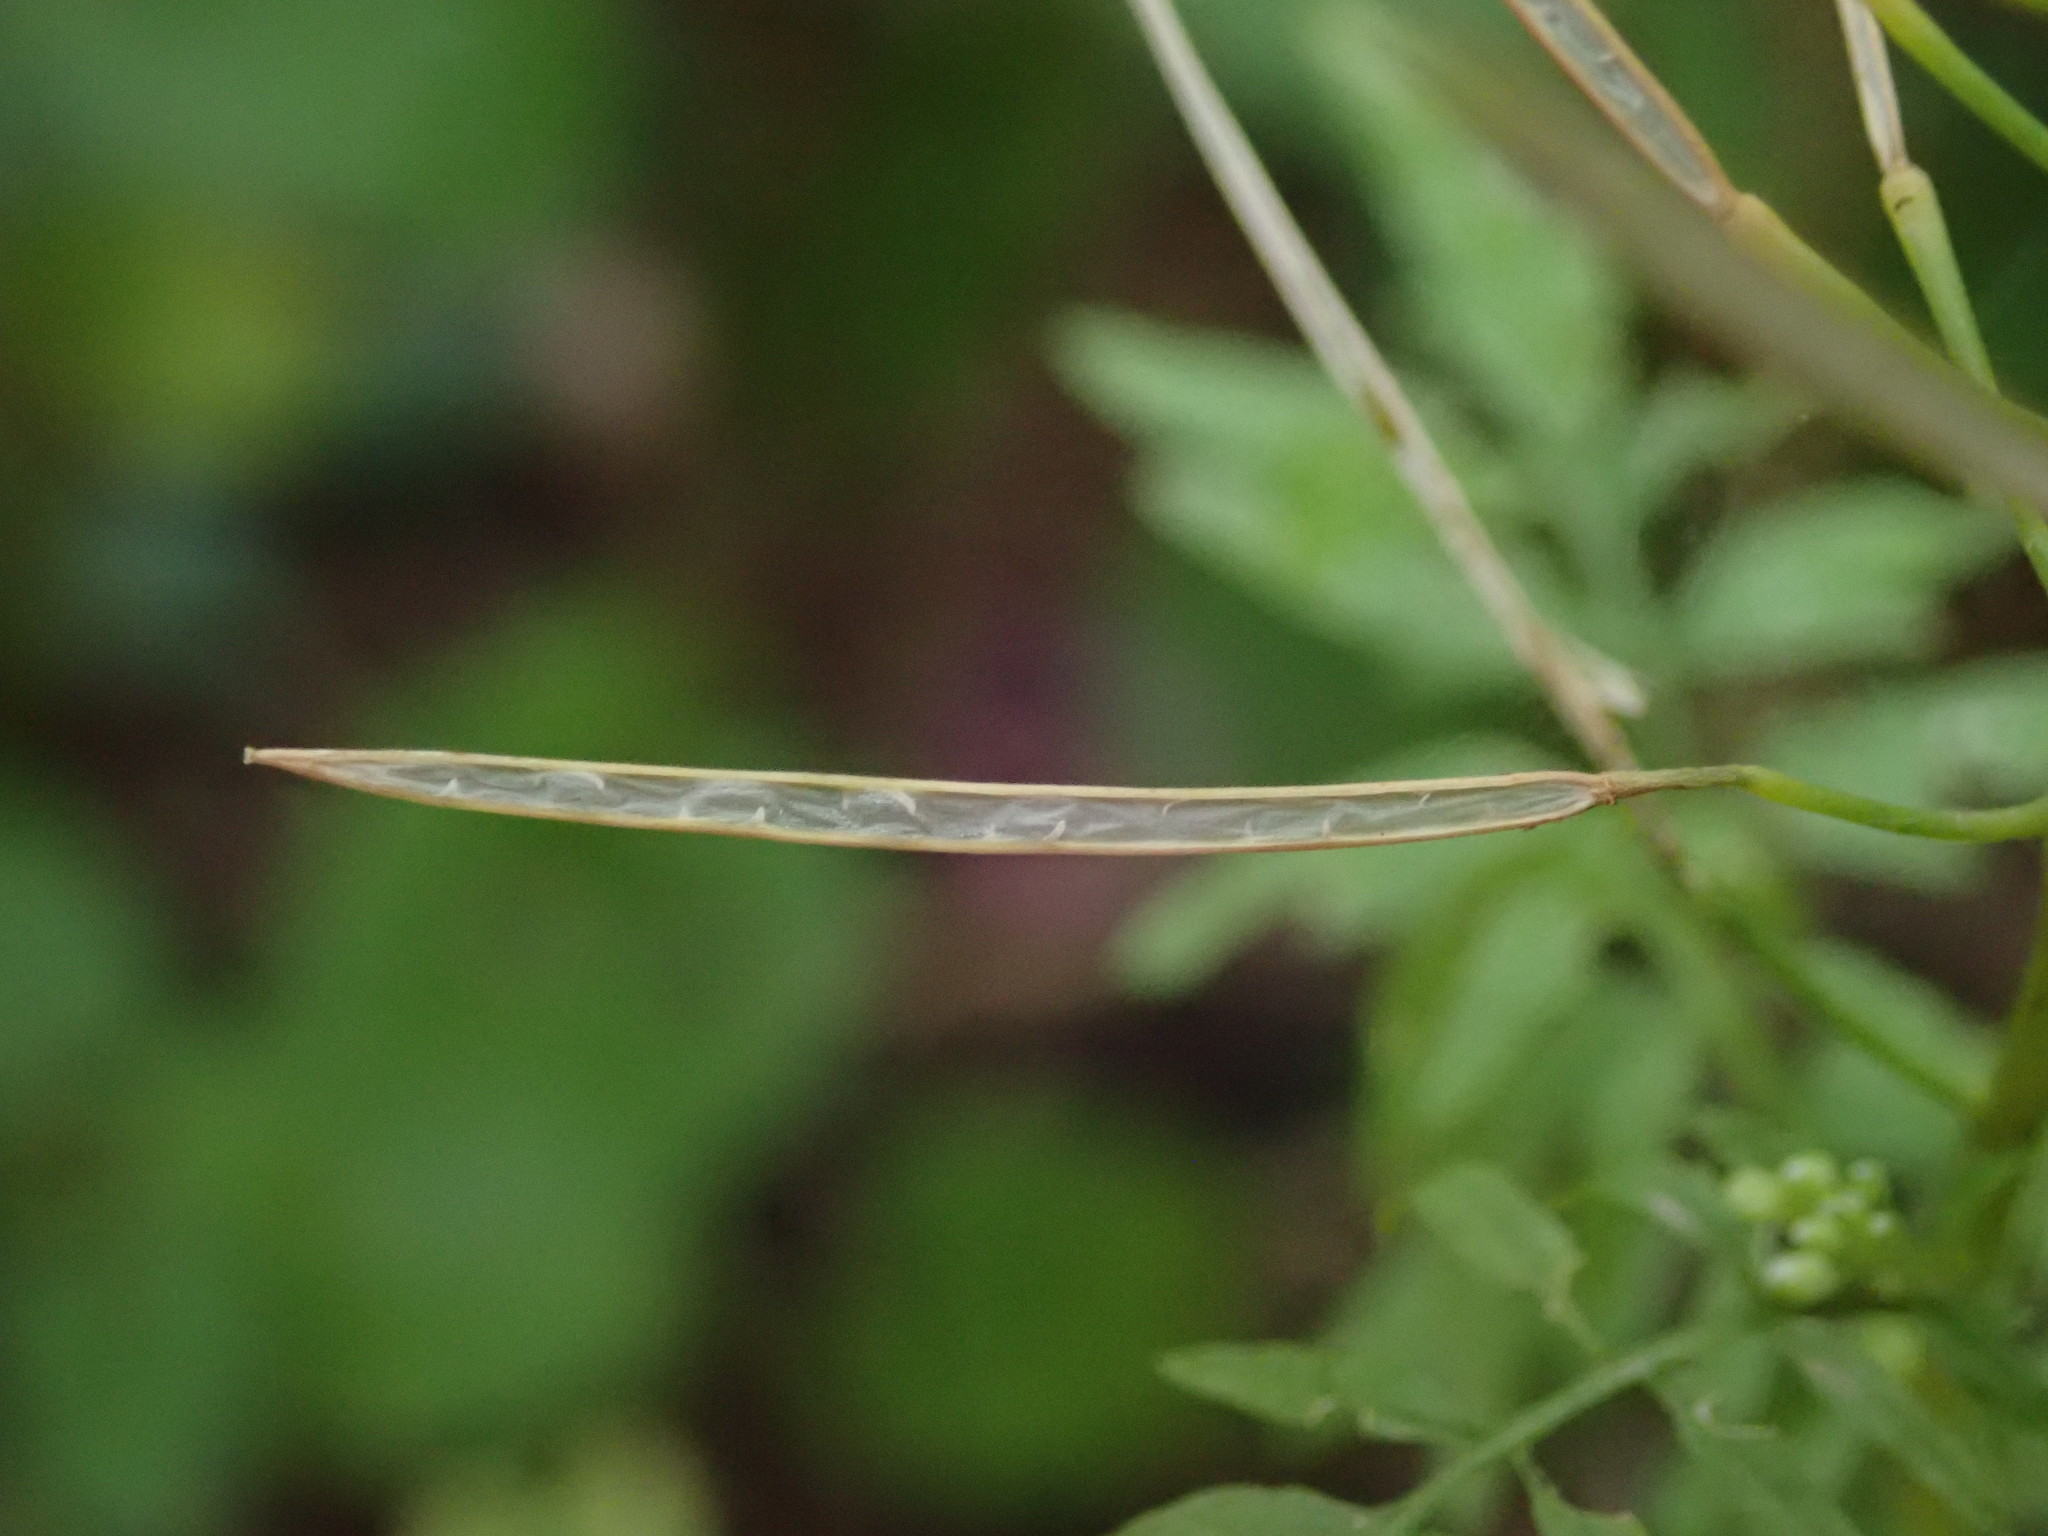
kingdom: Plantae
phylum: Tracheophyta
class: Magnoliopsida
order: Brassicales
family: Brassicaceae
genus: Cardamine
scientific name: Cardamine impatiens
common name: Narrow-leaved bitter-cress
